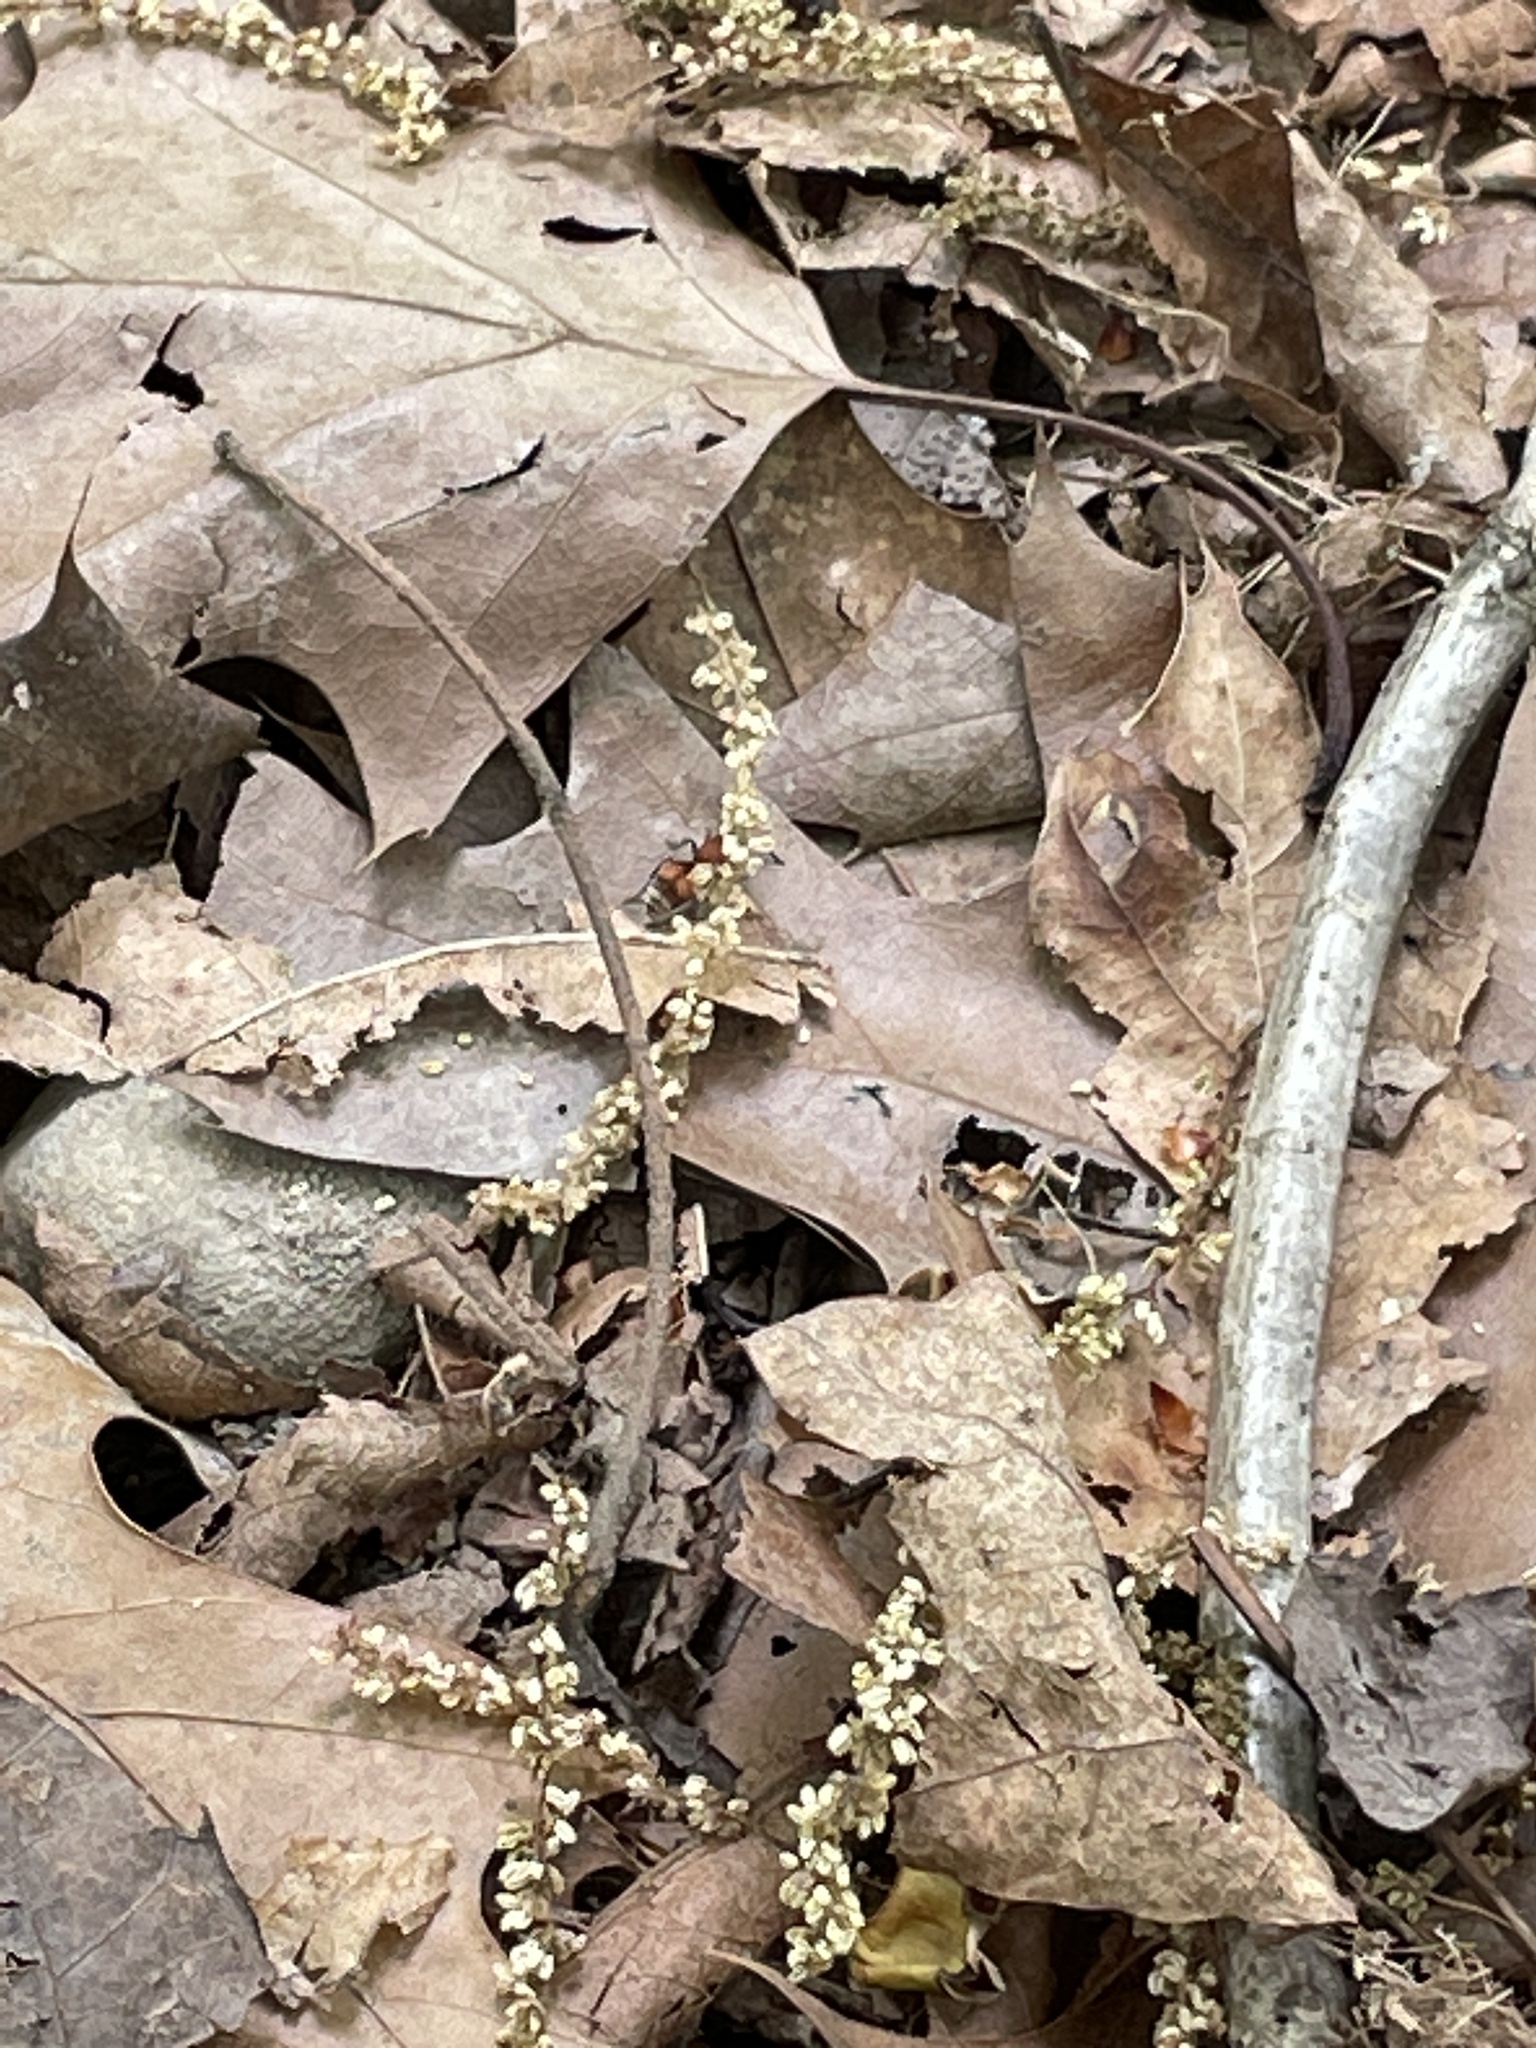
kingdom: Animalia
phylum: Arthropoda
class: Insecta
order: Hymenoptera
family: Mutillidae
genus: Pseudomethoca
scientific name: Pseudomethoca
